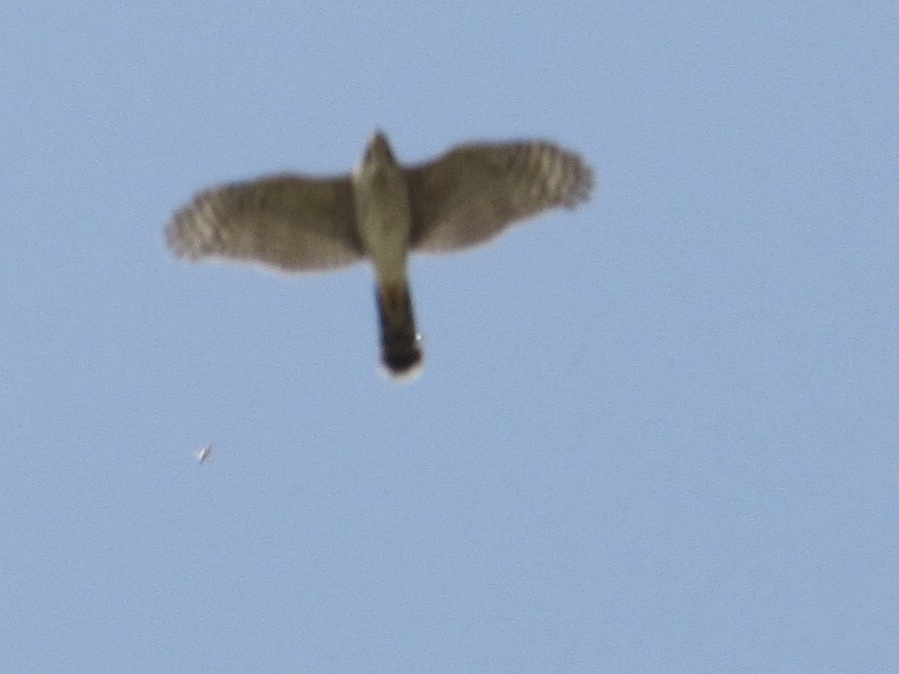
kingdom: Animalia
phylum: Chordata
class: Aves
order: Accipitriformes
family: Accipitridae
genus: Accipiter
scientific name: Accipiter cooperii
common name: Cooper's hawk
